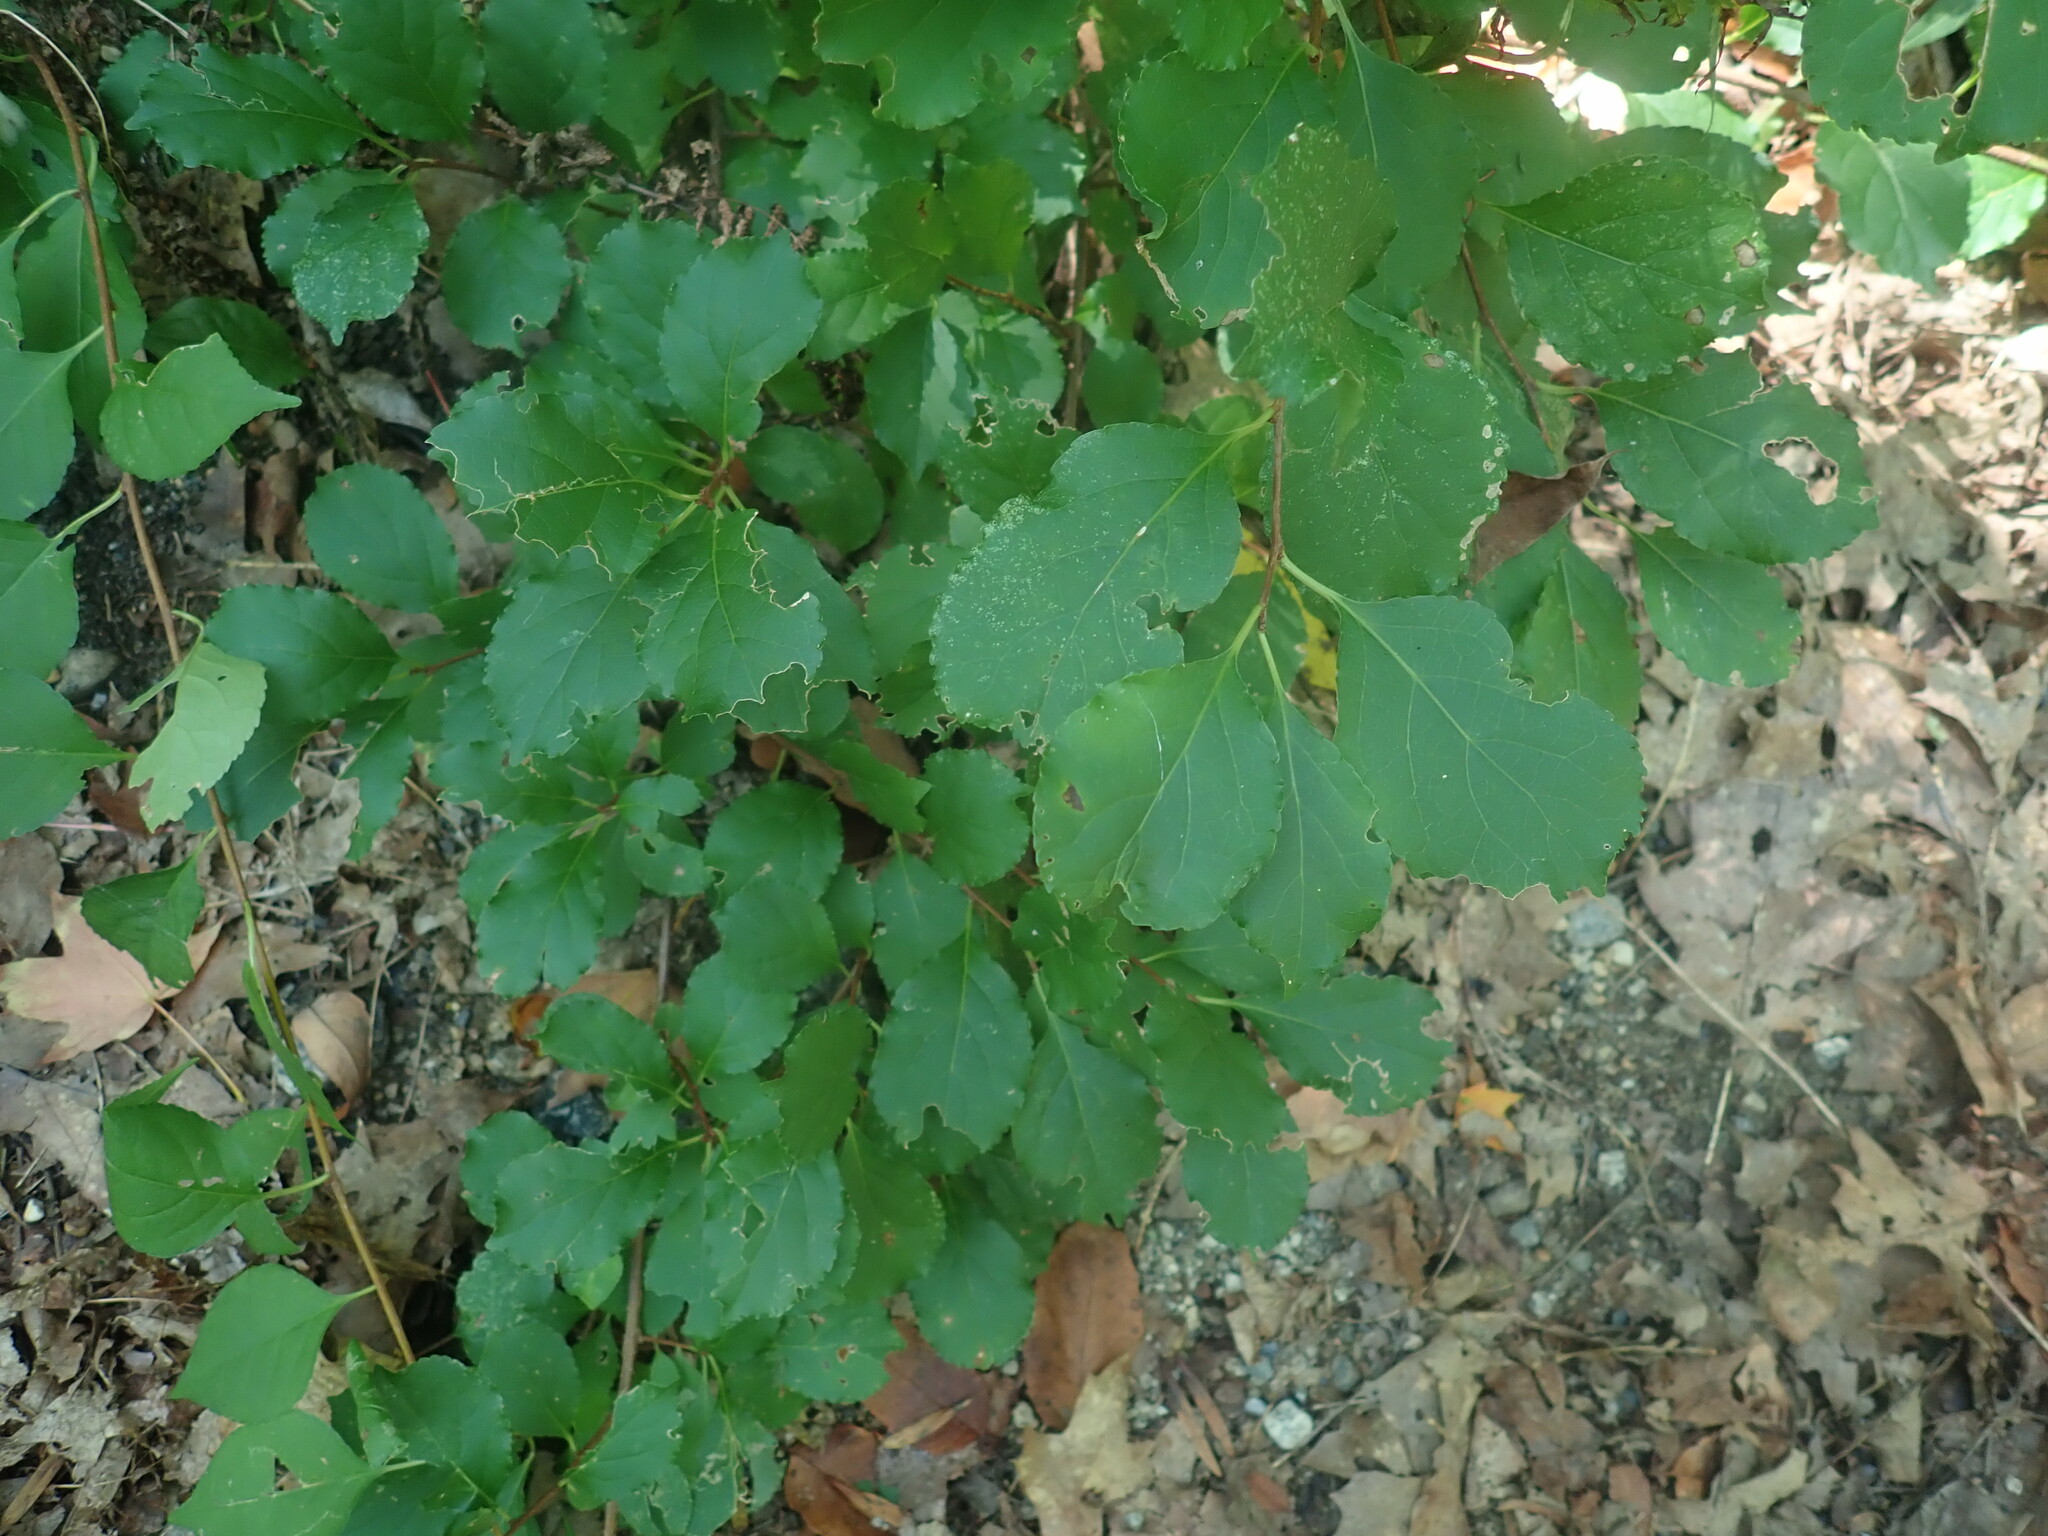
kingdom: Plantae
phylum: Tracheophyta
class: Magnoliopsida
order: Celastrales
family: Celastraceae
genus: Celastrus
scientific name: Celastrus orbiculatus
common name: Oriental bittersweet
